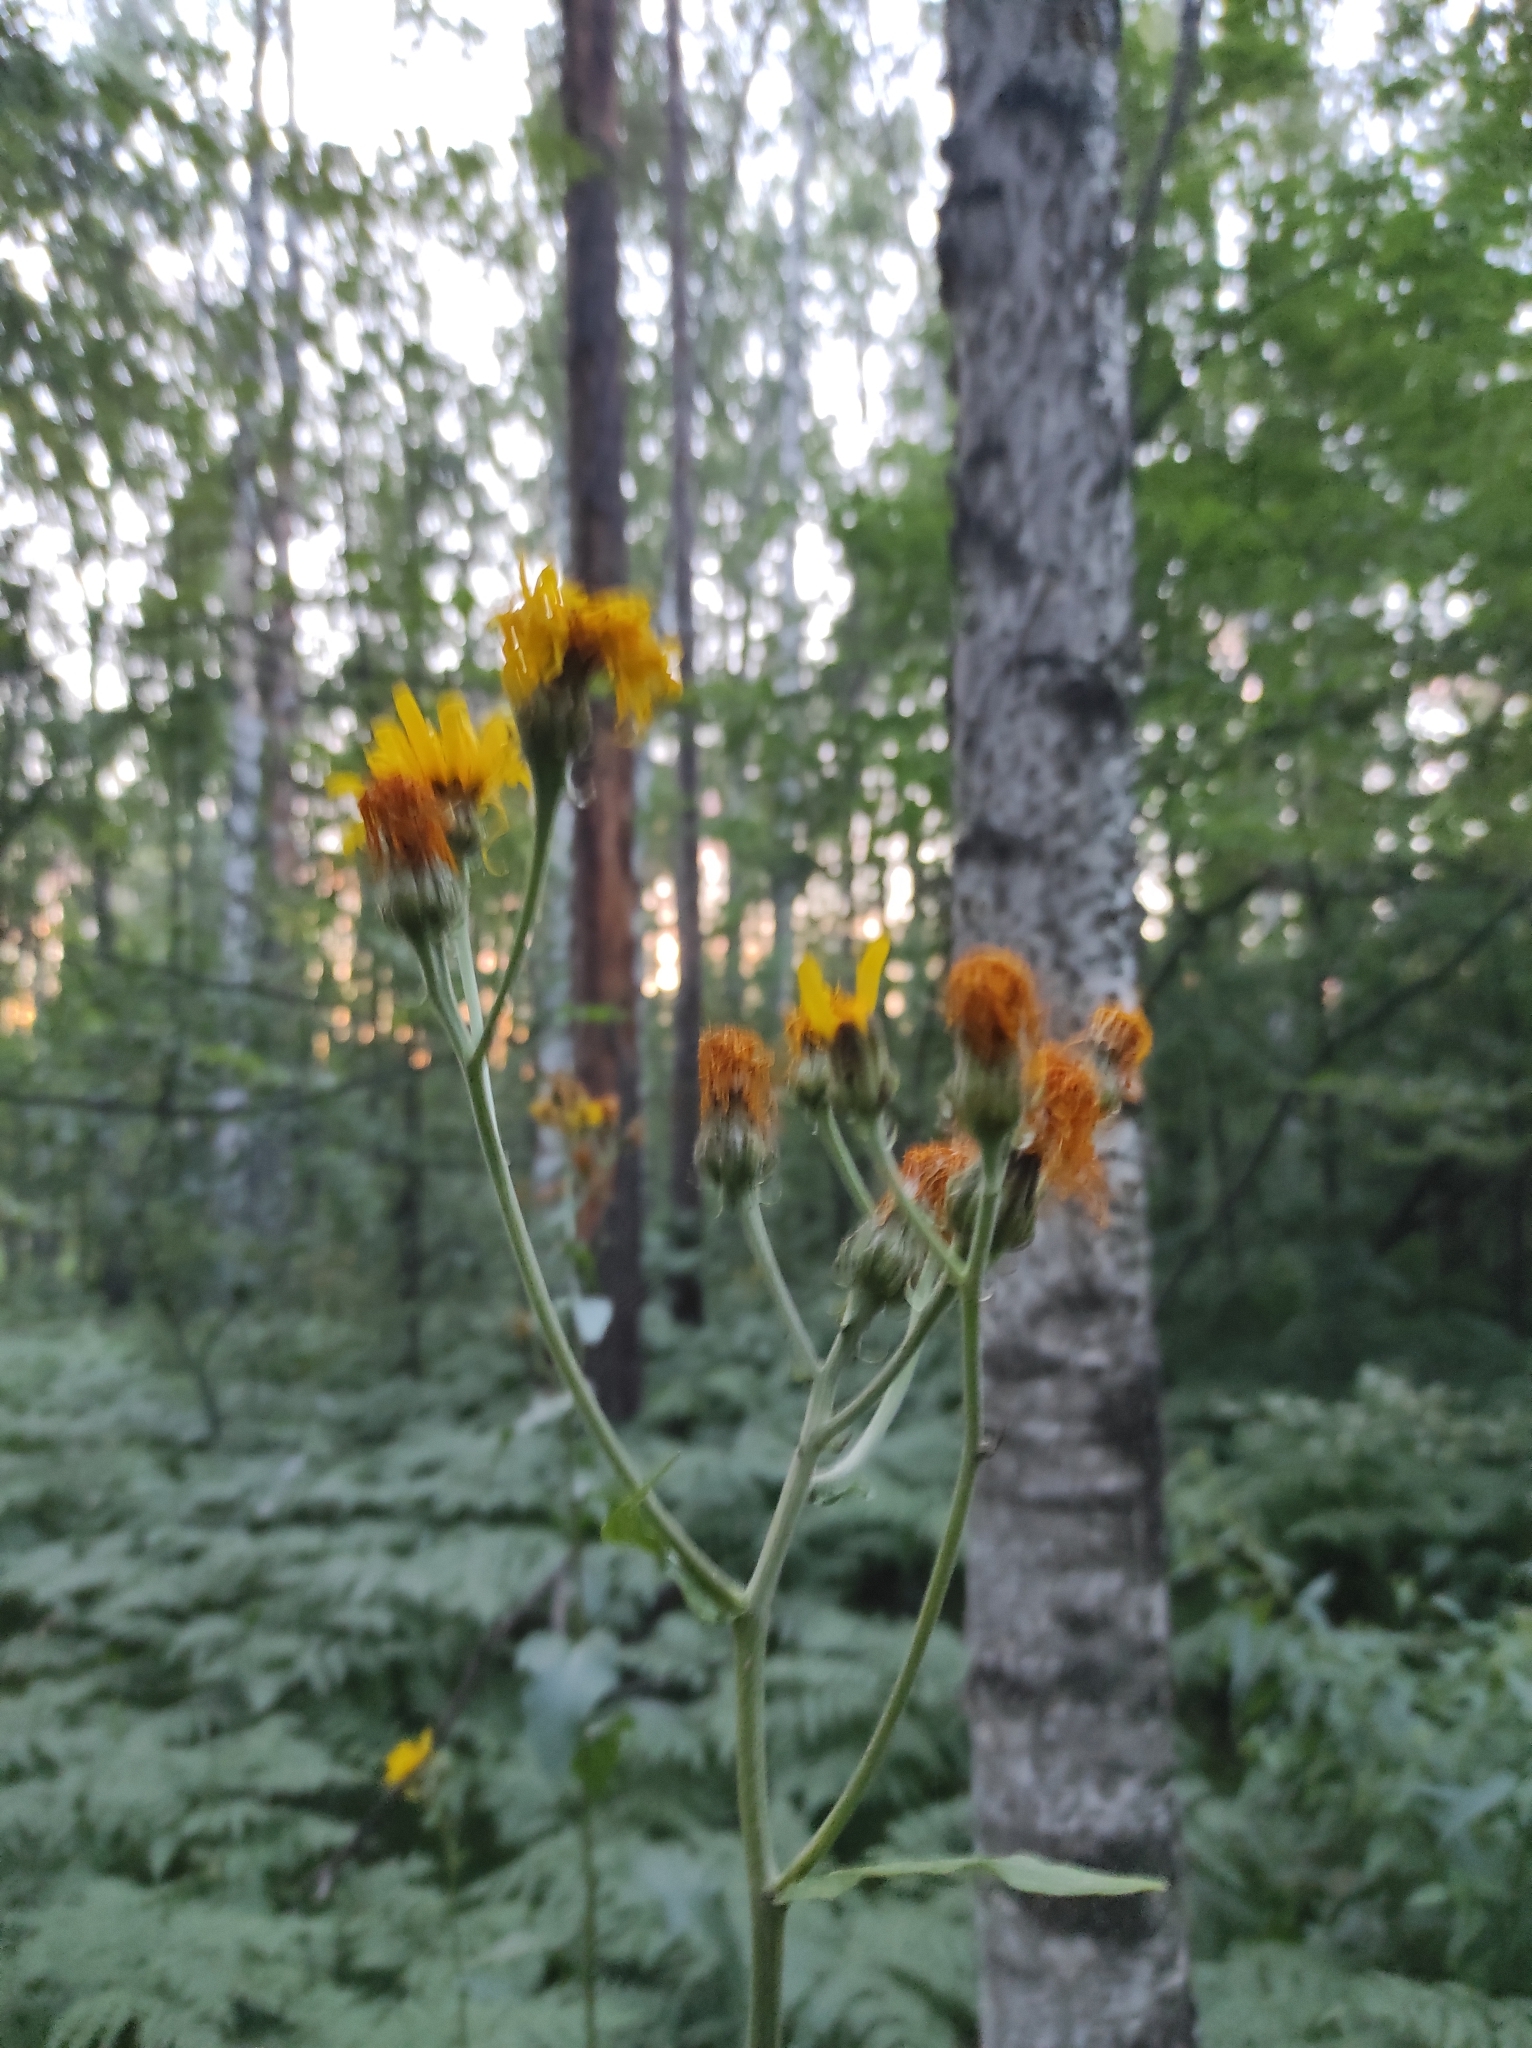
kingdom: Plantae
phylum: Tracheophyta
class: Magnoliopsida
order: Asterales
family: Asteraceae
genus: Crepis
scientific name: Crepis sibirica
